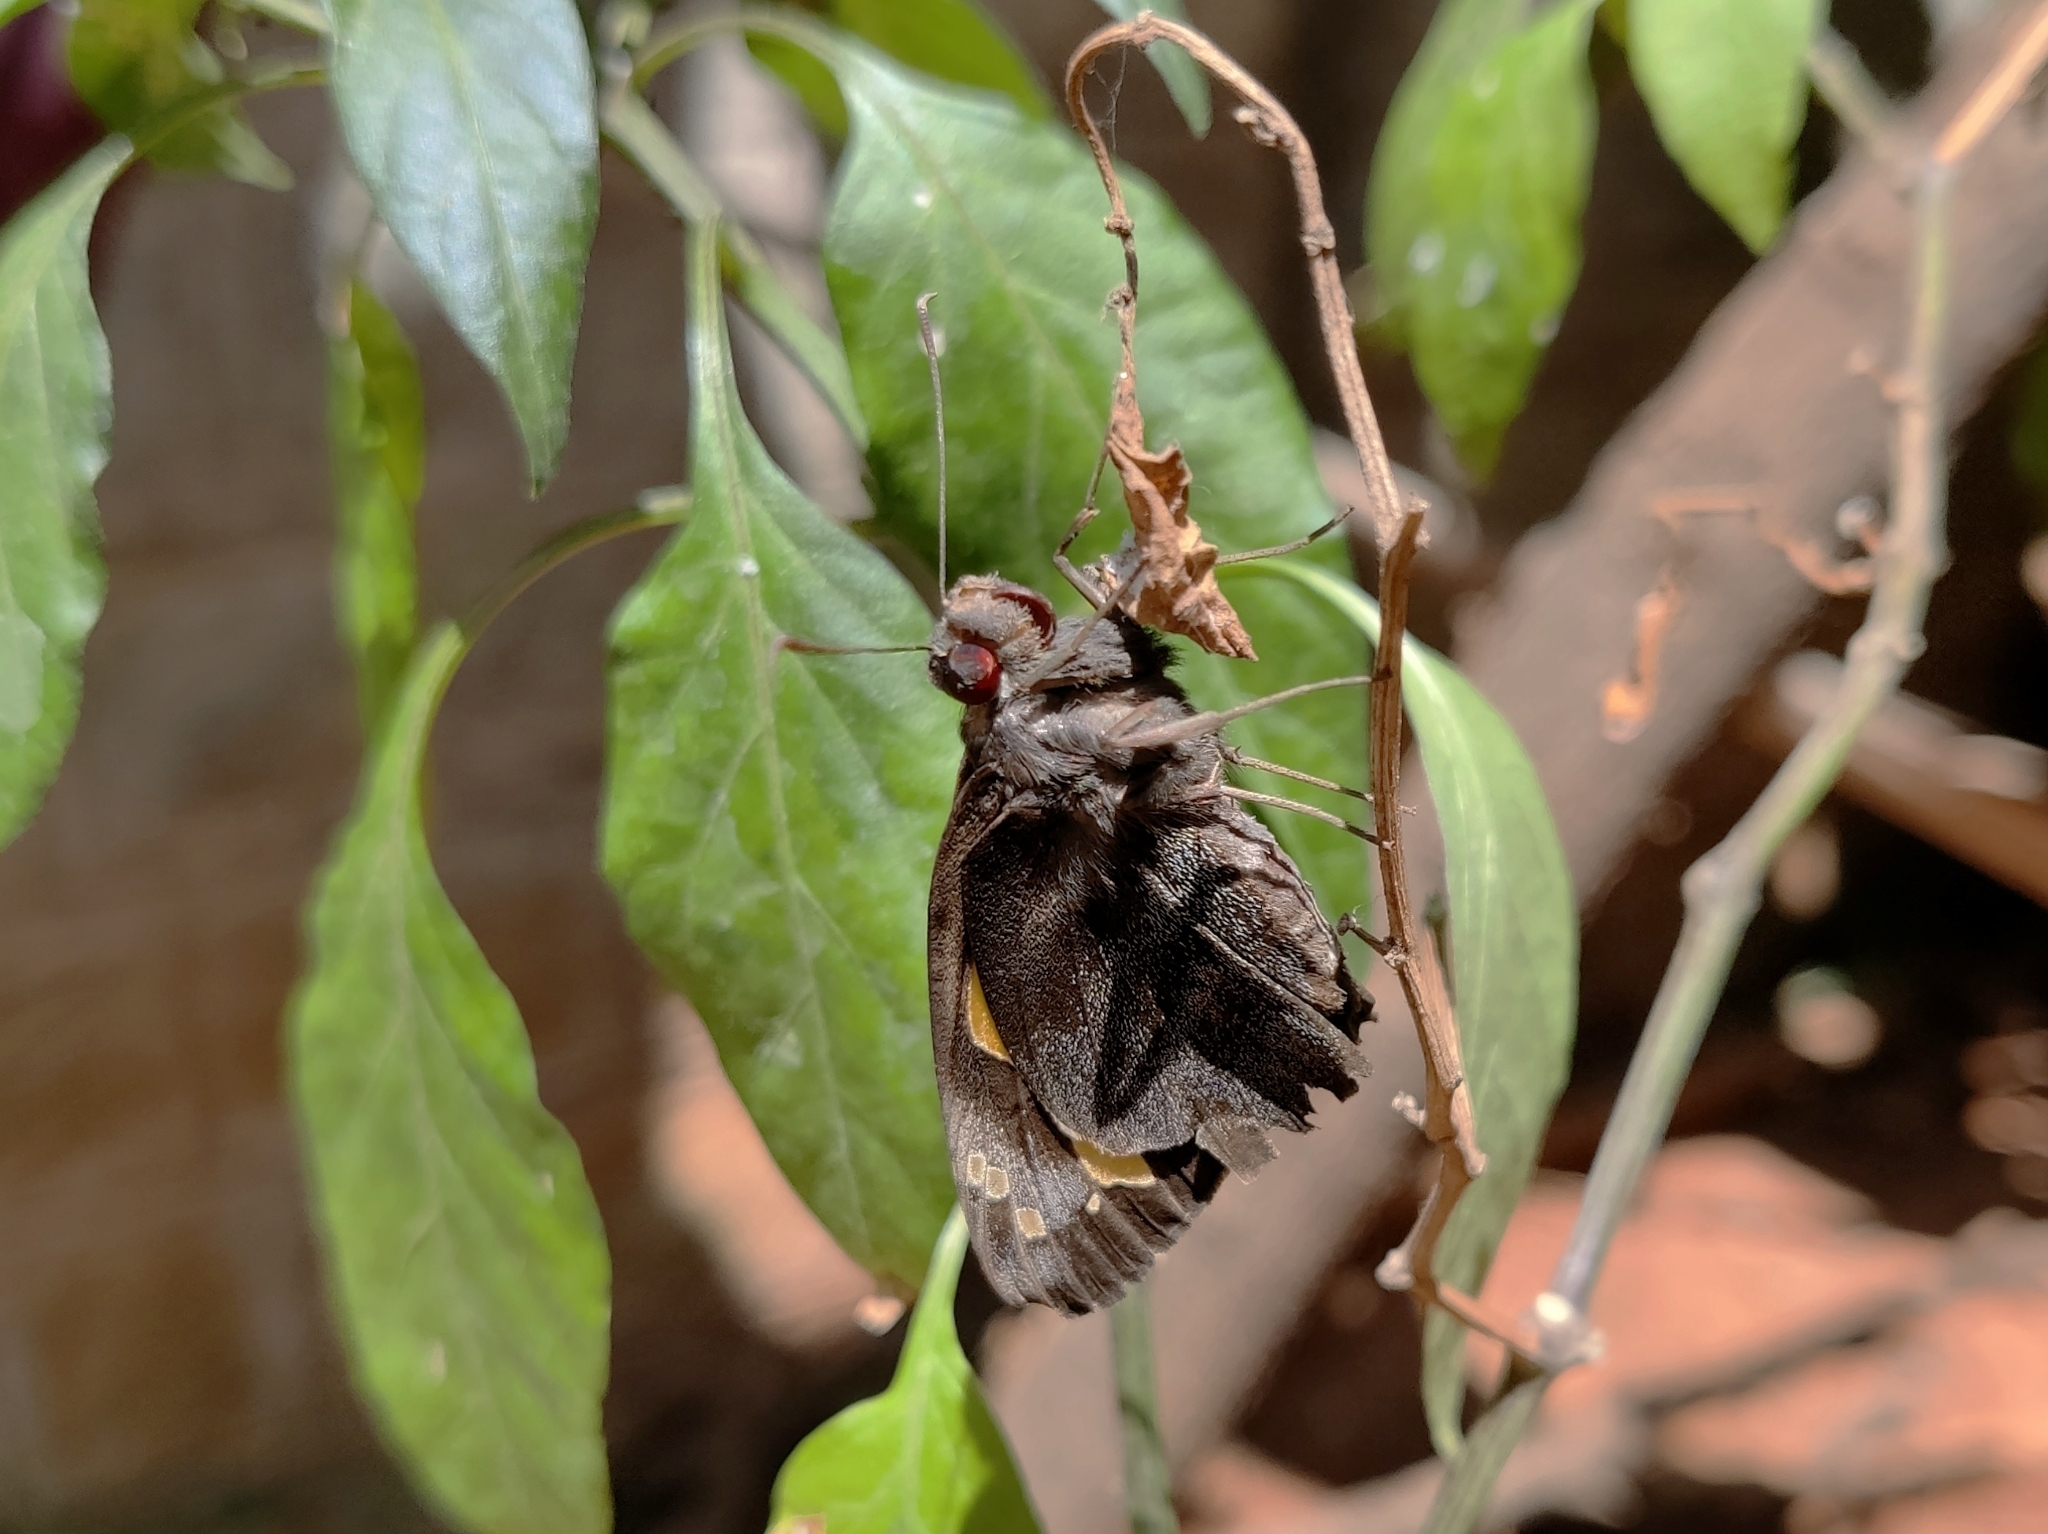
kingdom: Animalia
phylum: Arthropoda
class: Insecta
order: Lepidoptera
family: Hesperiidae
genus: Gangara
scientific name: Gangara thyrsis
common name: Giant redeye
